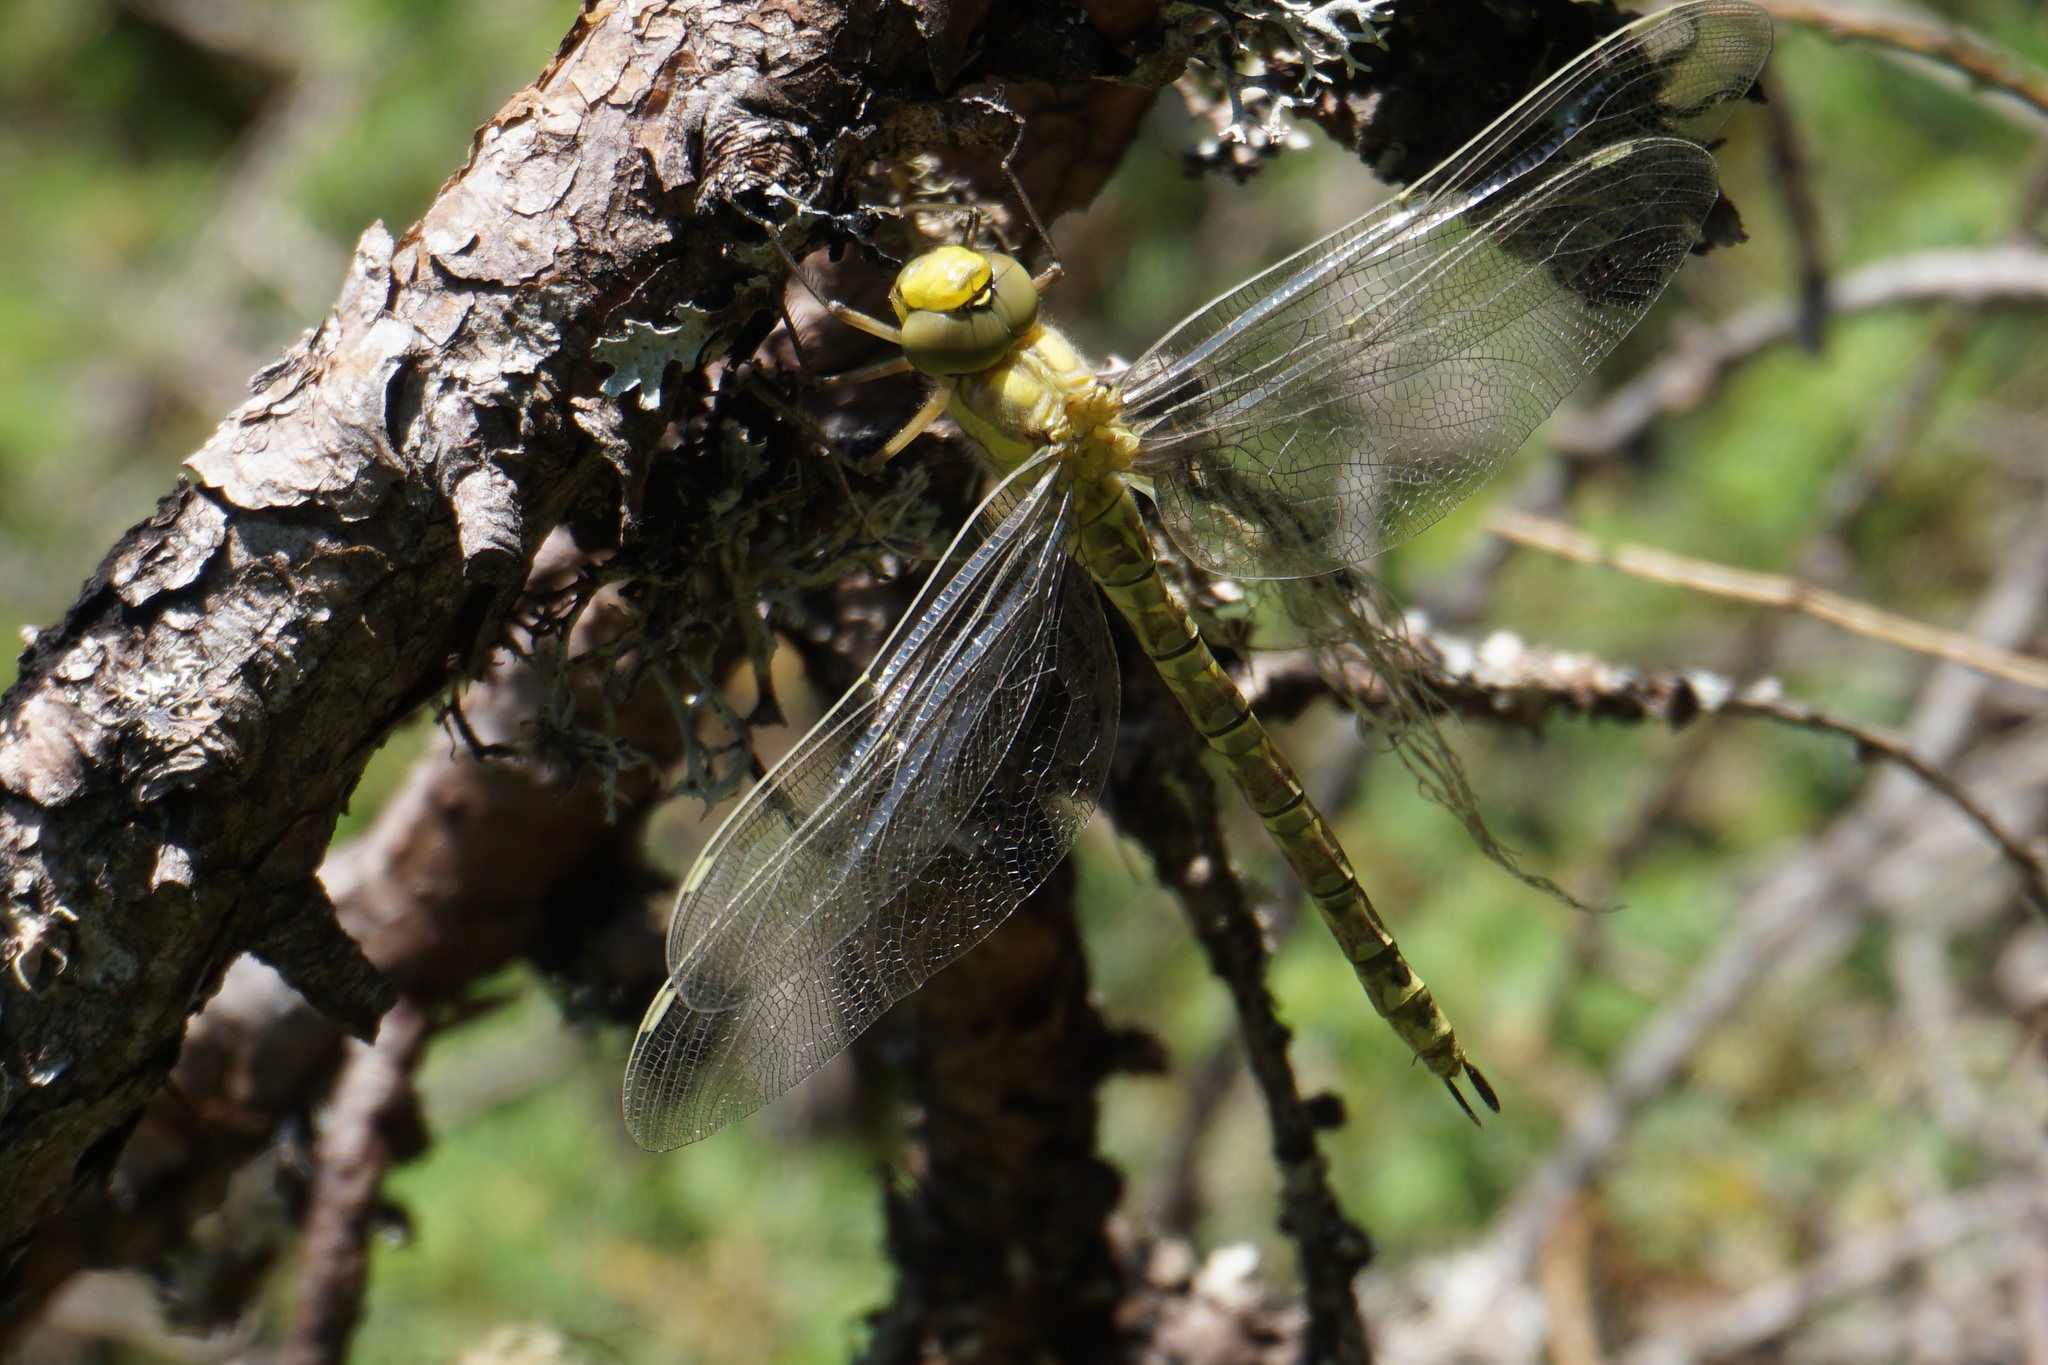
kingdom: Animalia
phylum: Arthropoda
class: Insecta
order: Odonata
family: Aeshnidae
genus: Aeshna
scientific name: Aeshna cyanea
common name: Southern hawker
